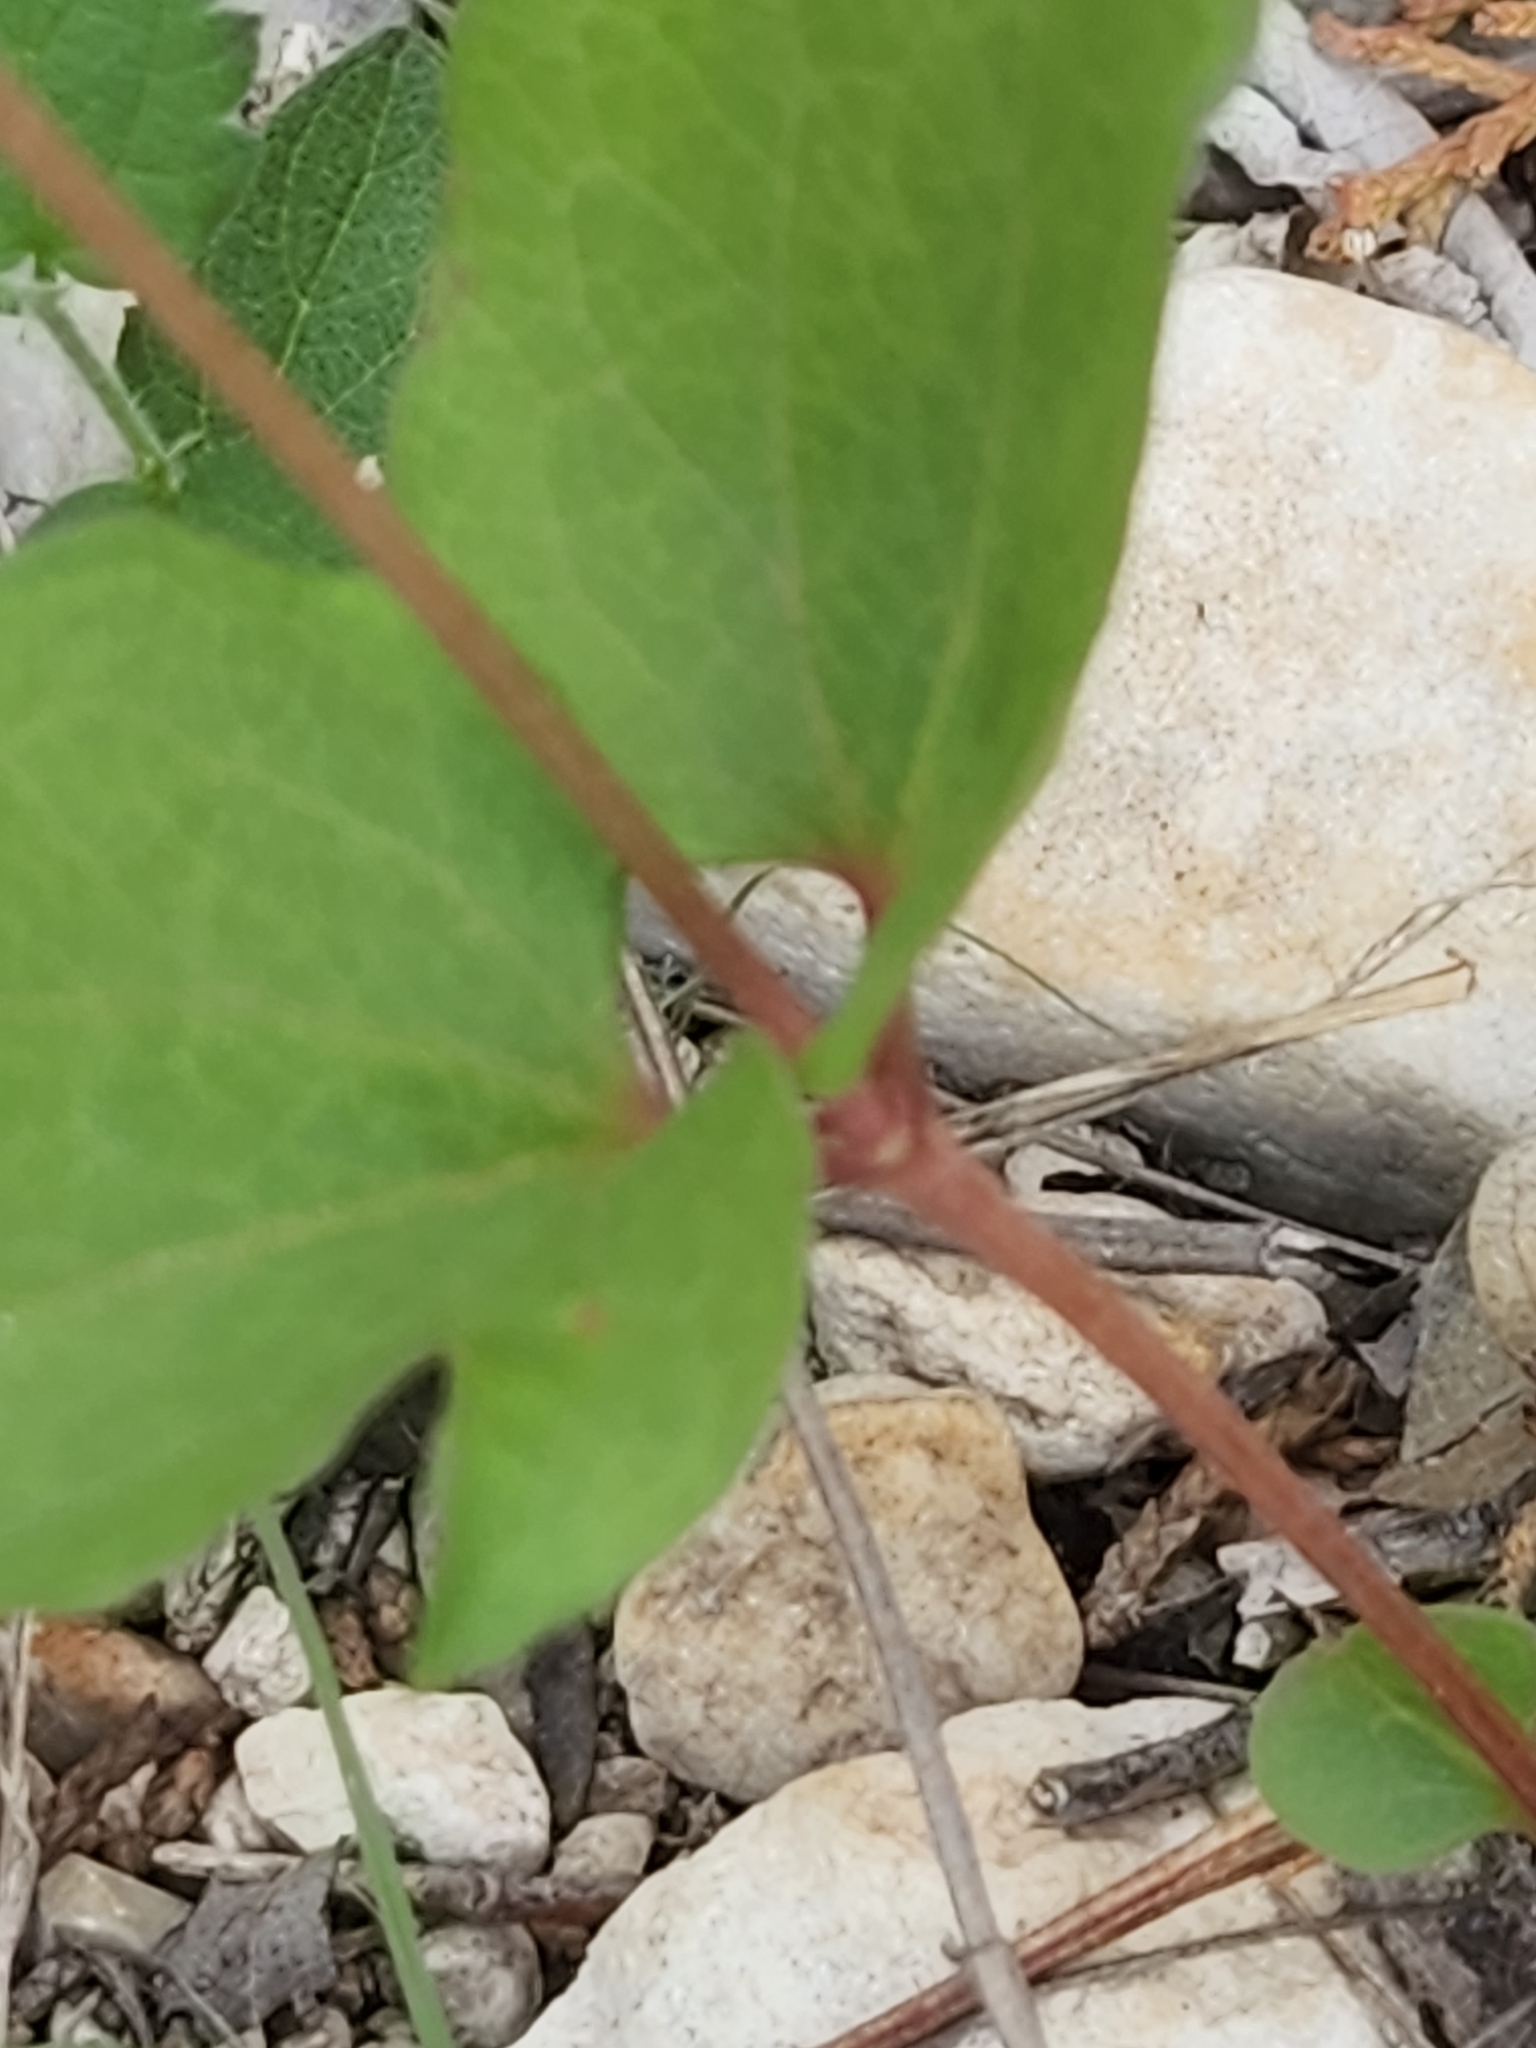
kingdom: Plantae
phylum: Tracheophyta
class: Magnoliopsida
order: Ranunculales
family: Ranunculaceae
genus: Clematis
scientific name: Clematis pitcheri
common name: Bellflower clematis
